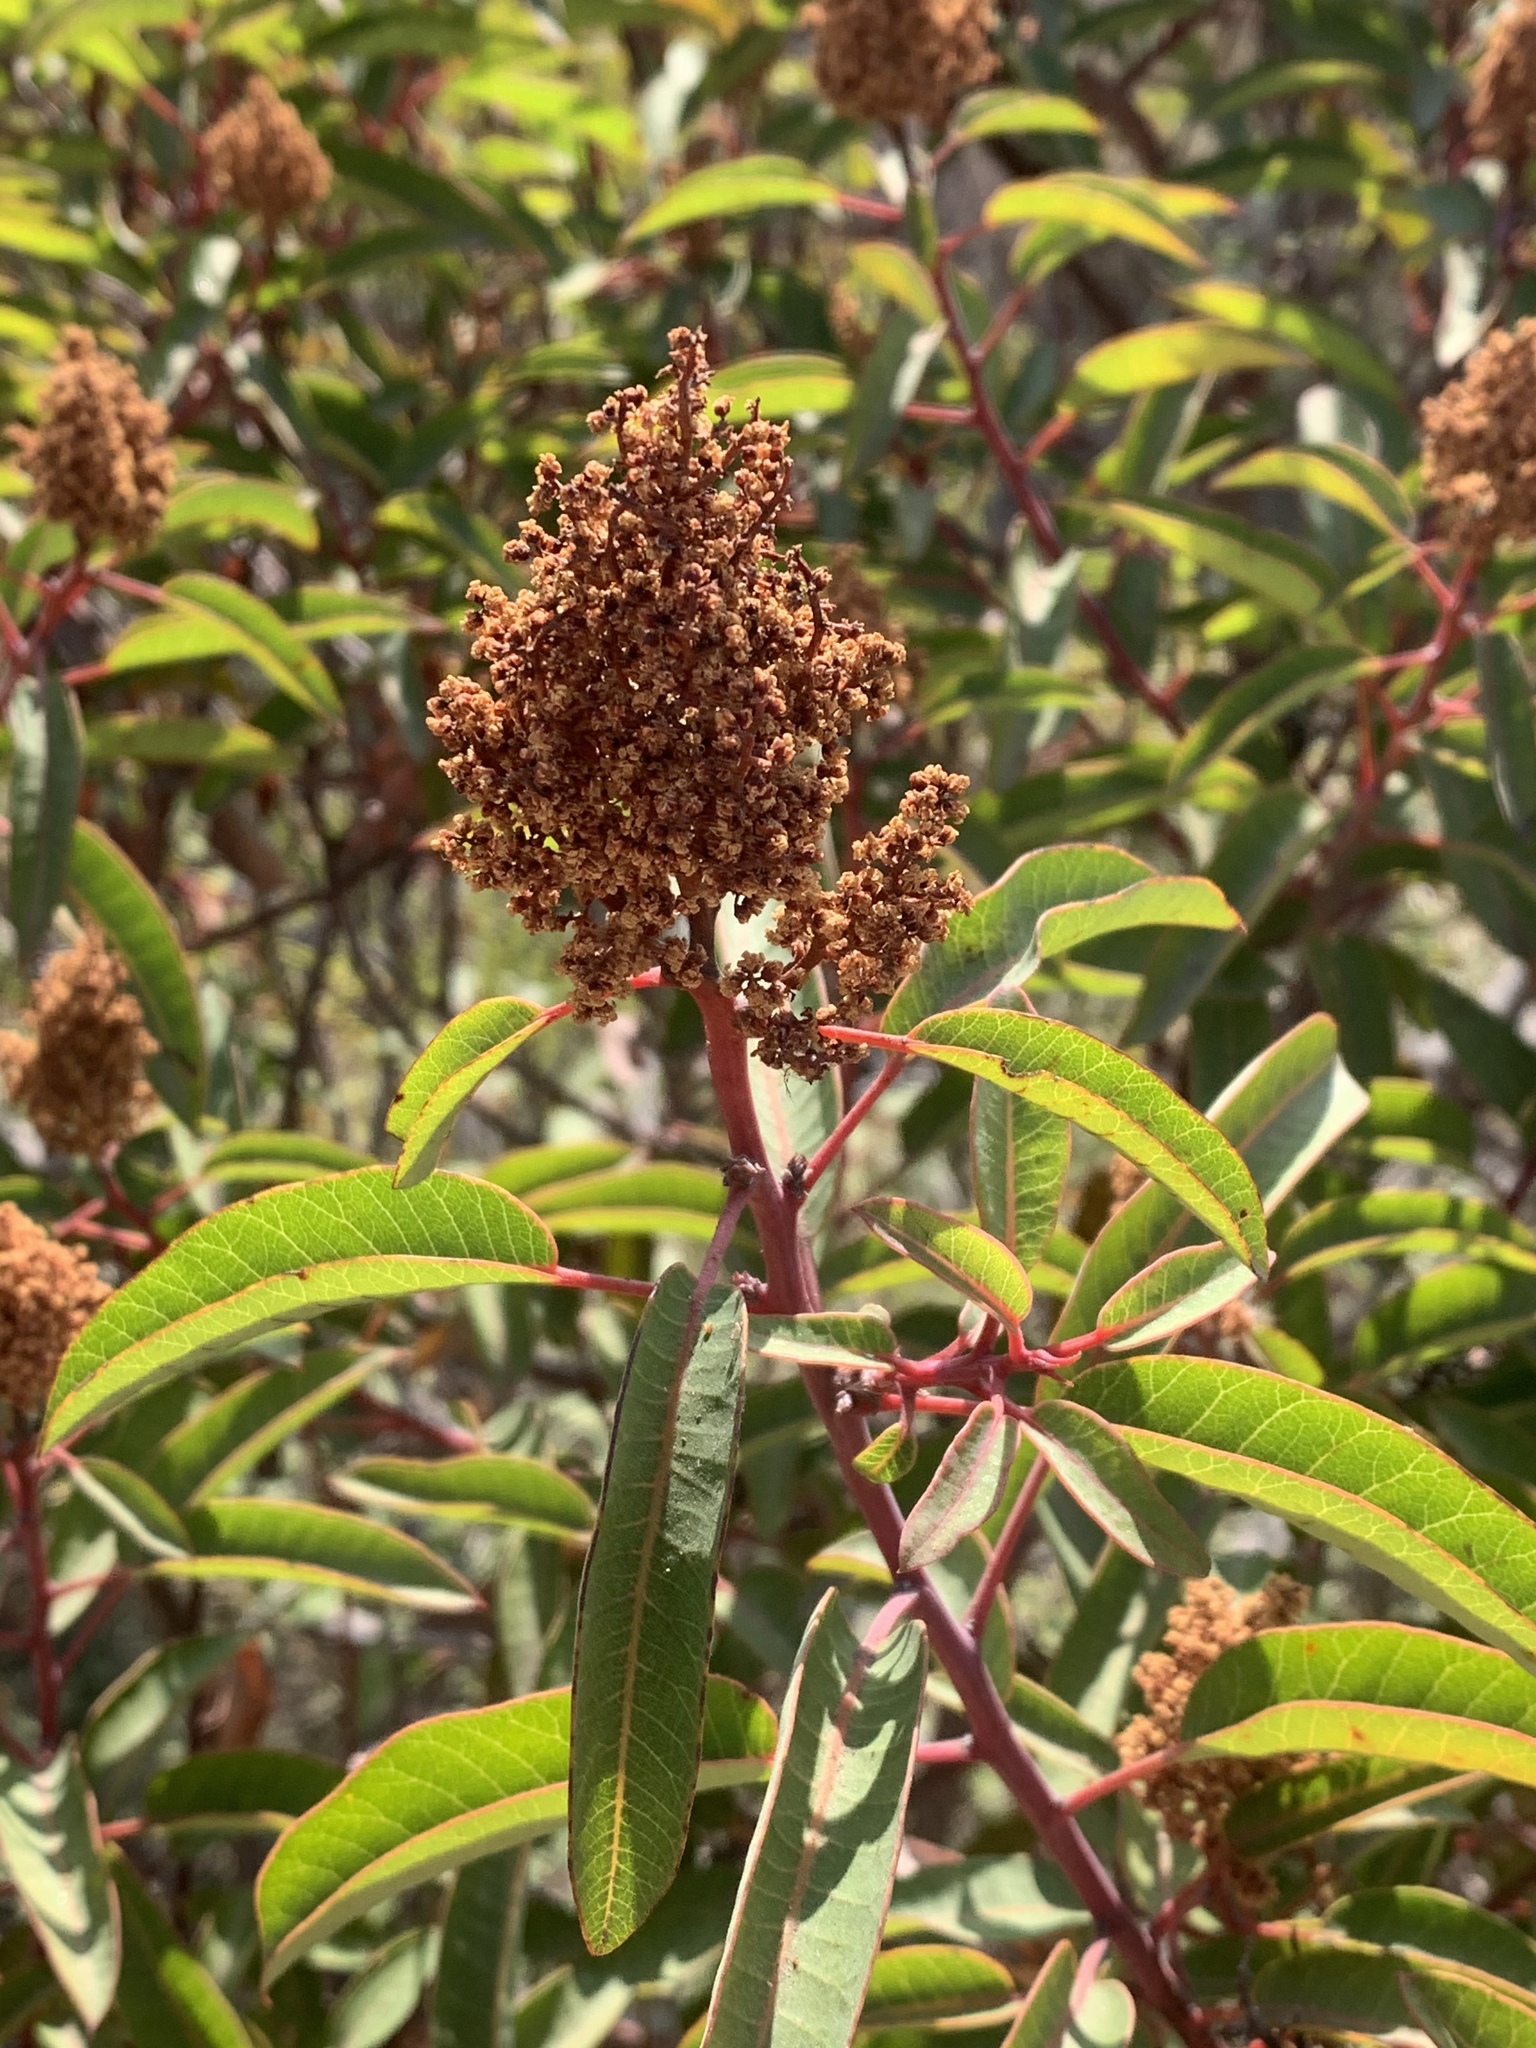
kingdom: Plantae
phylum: Tracheophyta
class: Magnoliopsida
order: Sapindales
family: Anacardiaceae
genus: Malosma
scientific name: Malosma laurina
